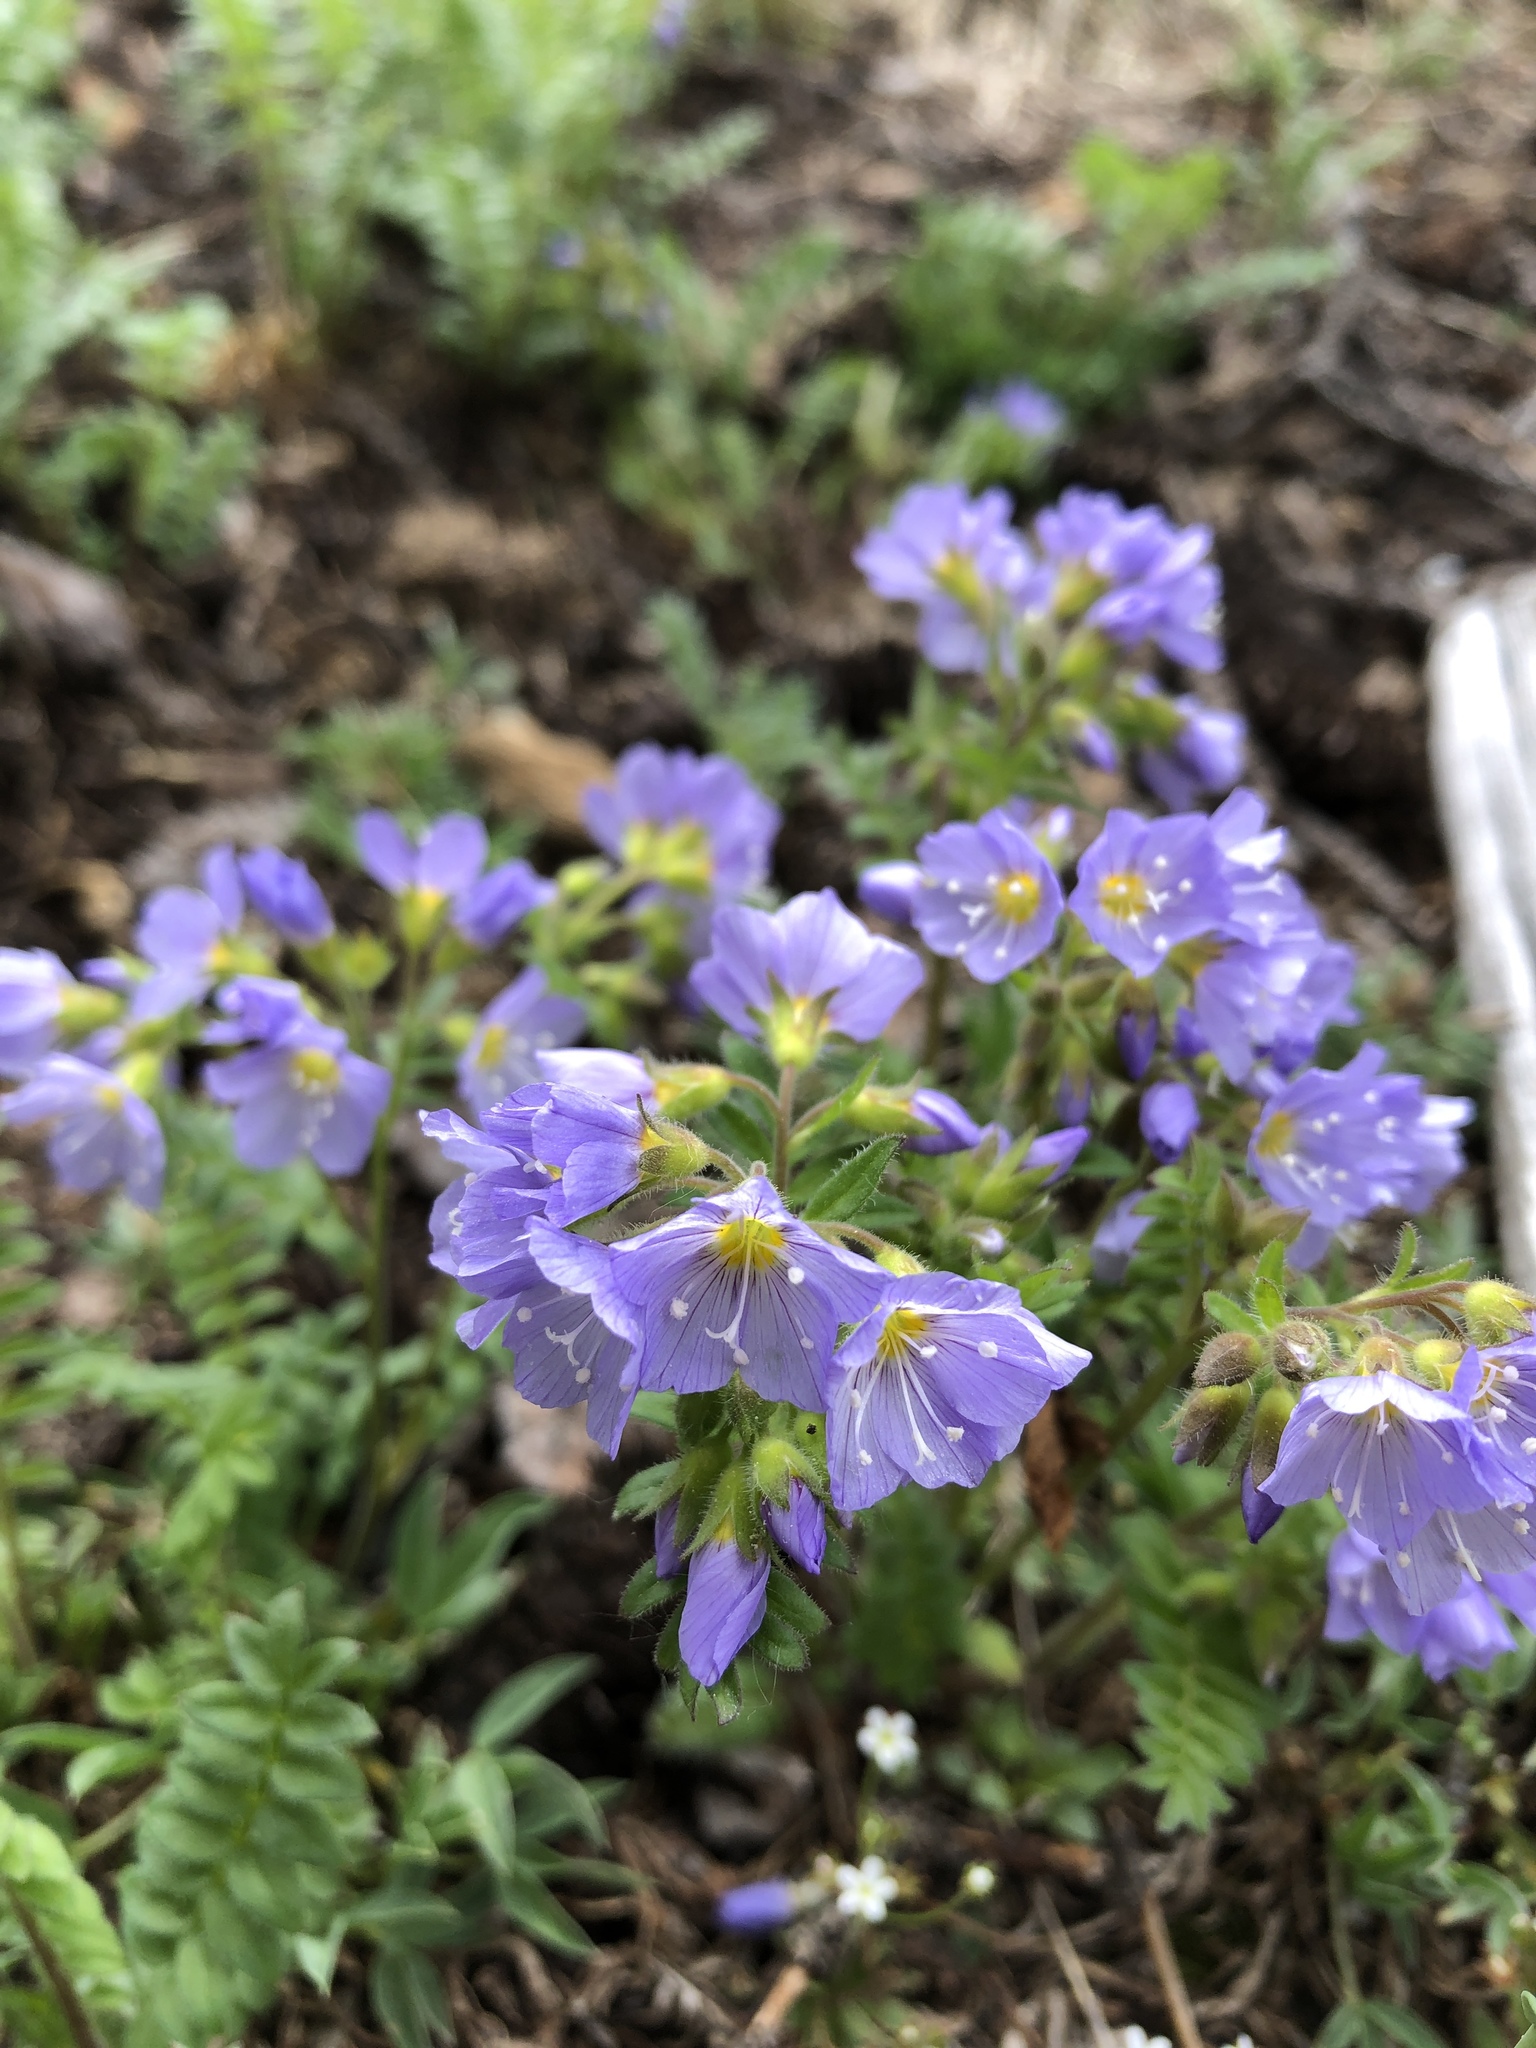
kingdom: Plantae
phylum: Tracheophyta
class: Magnoliopsida
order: Ericales
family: Polemoniaceae
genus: Polemonium
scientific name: Polemonium pulcherrimum
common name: Short jacob's-ladder
